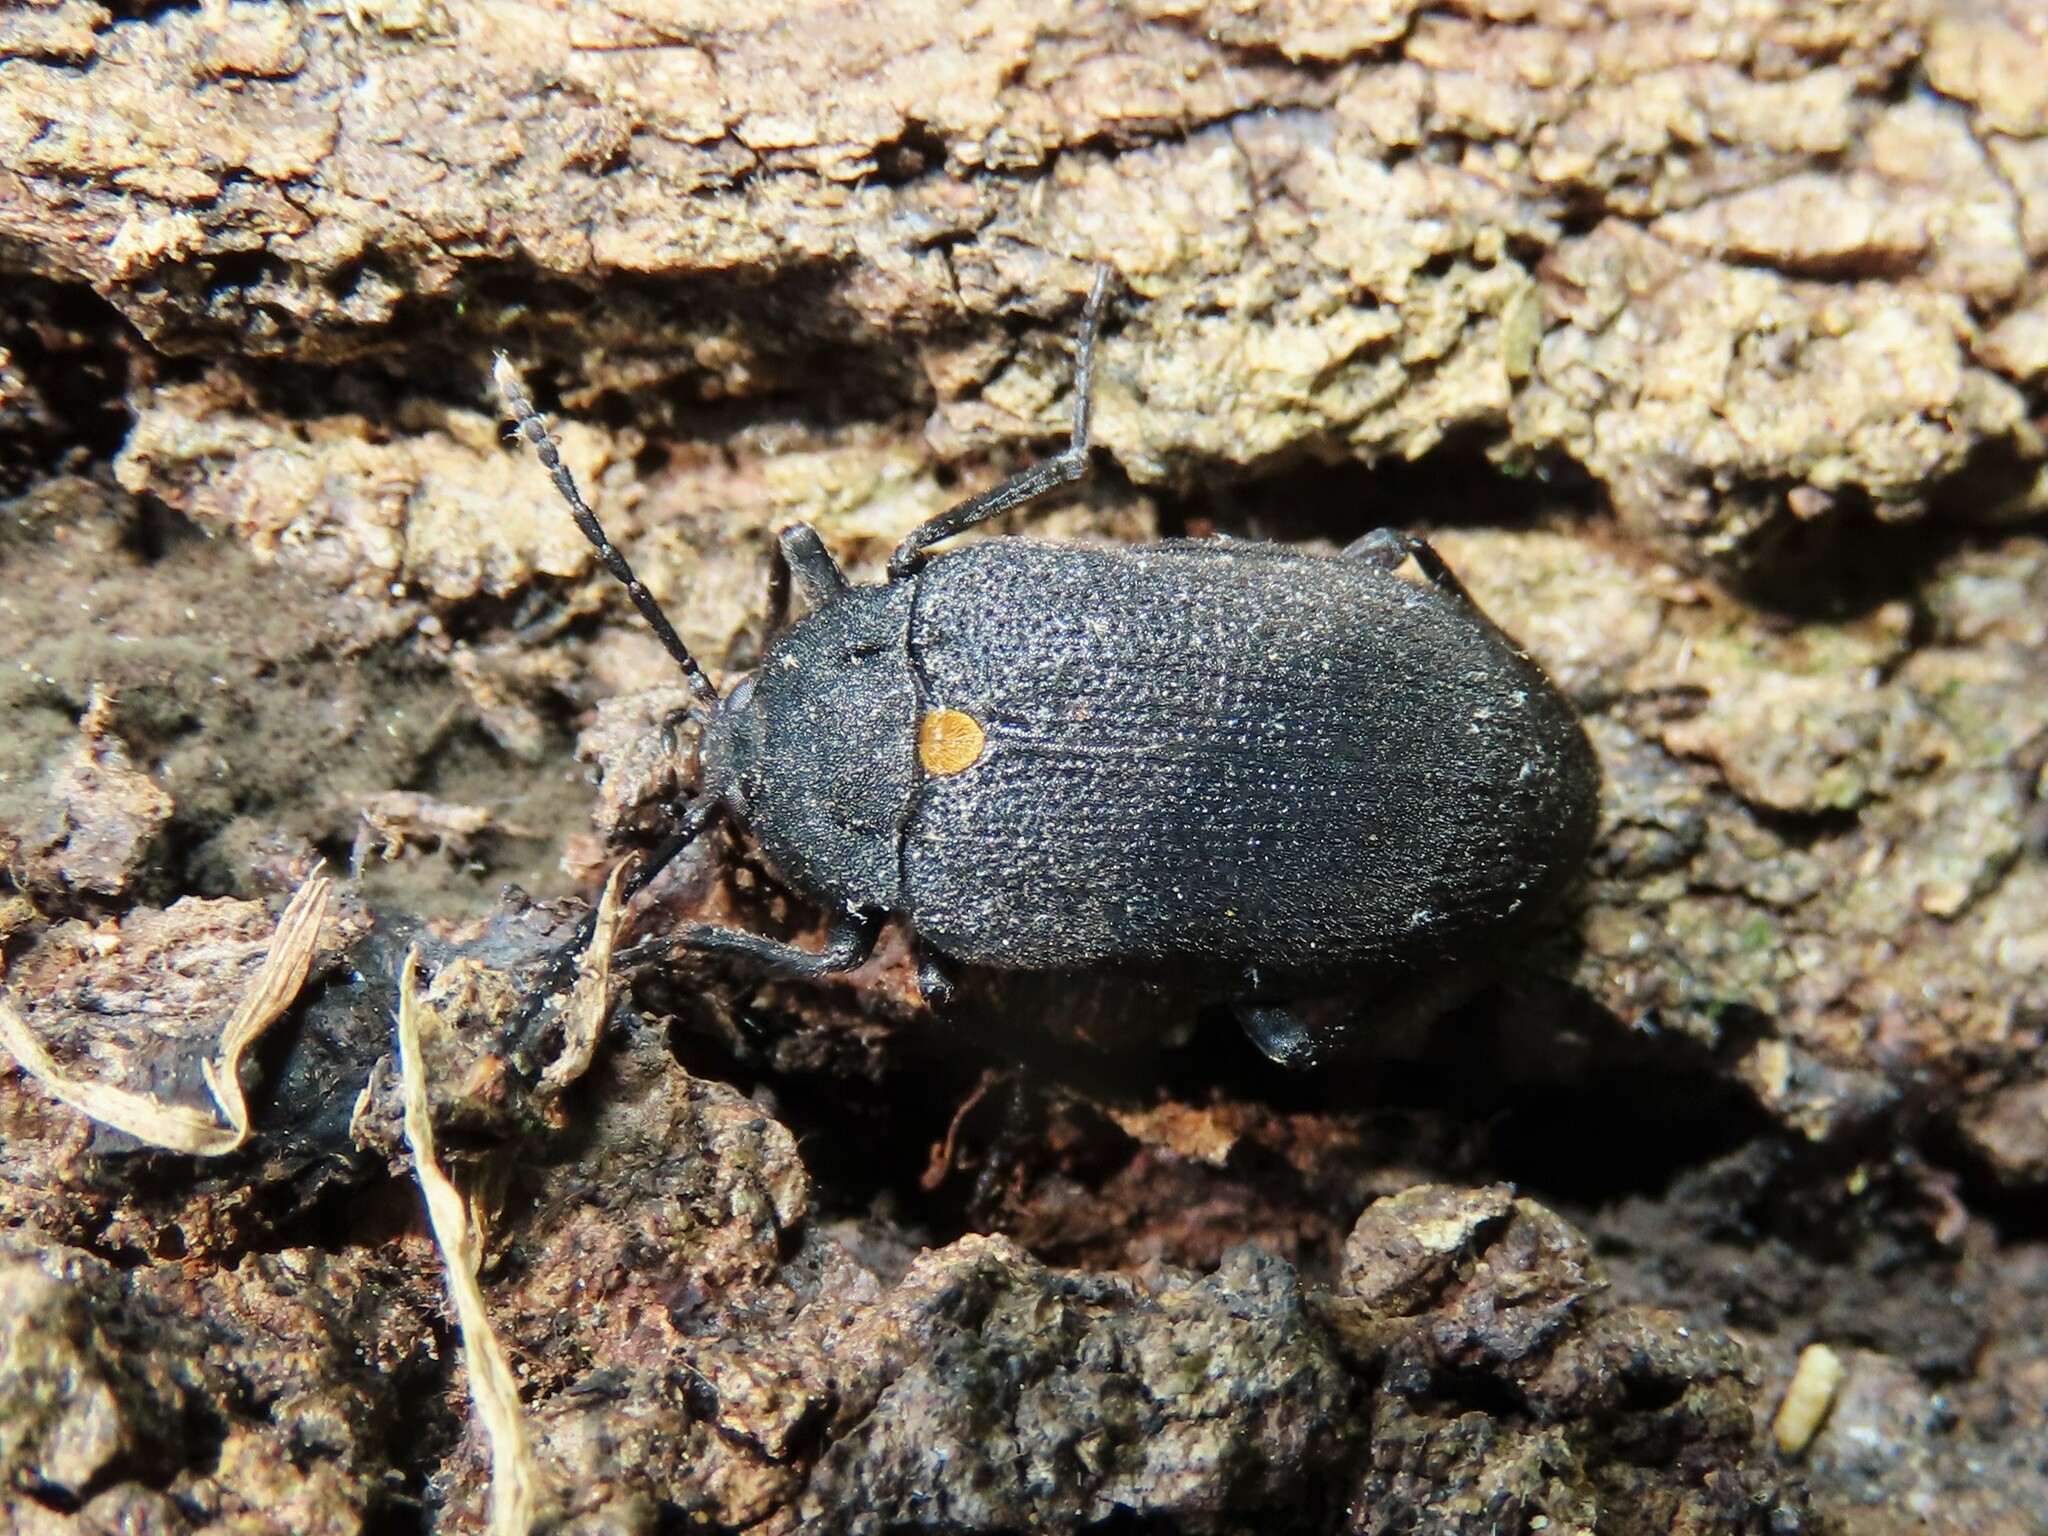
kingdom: Animalia
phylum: Arthropoda
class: Insecta
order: Coleoptera
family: Tetratomidae
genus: Penthe
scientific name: Penthe obliquata
